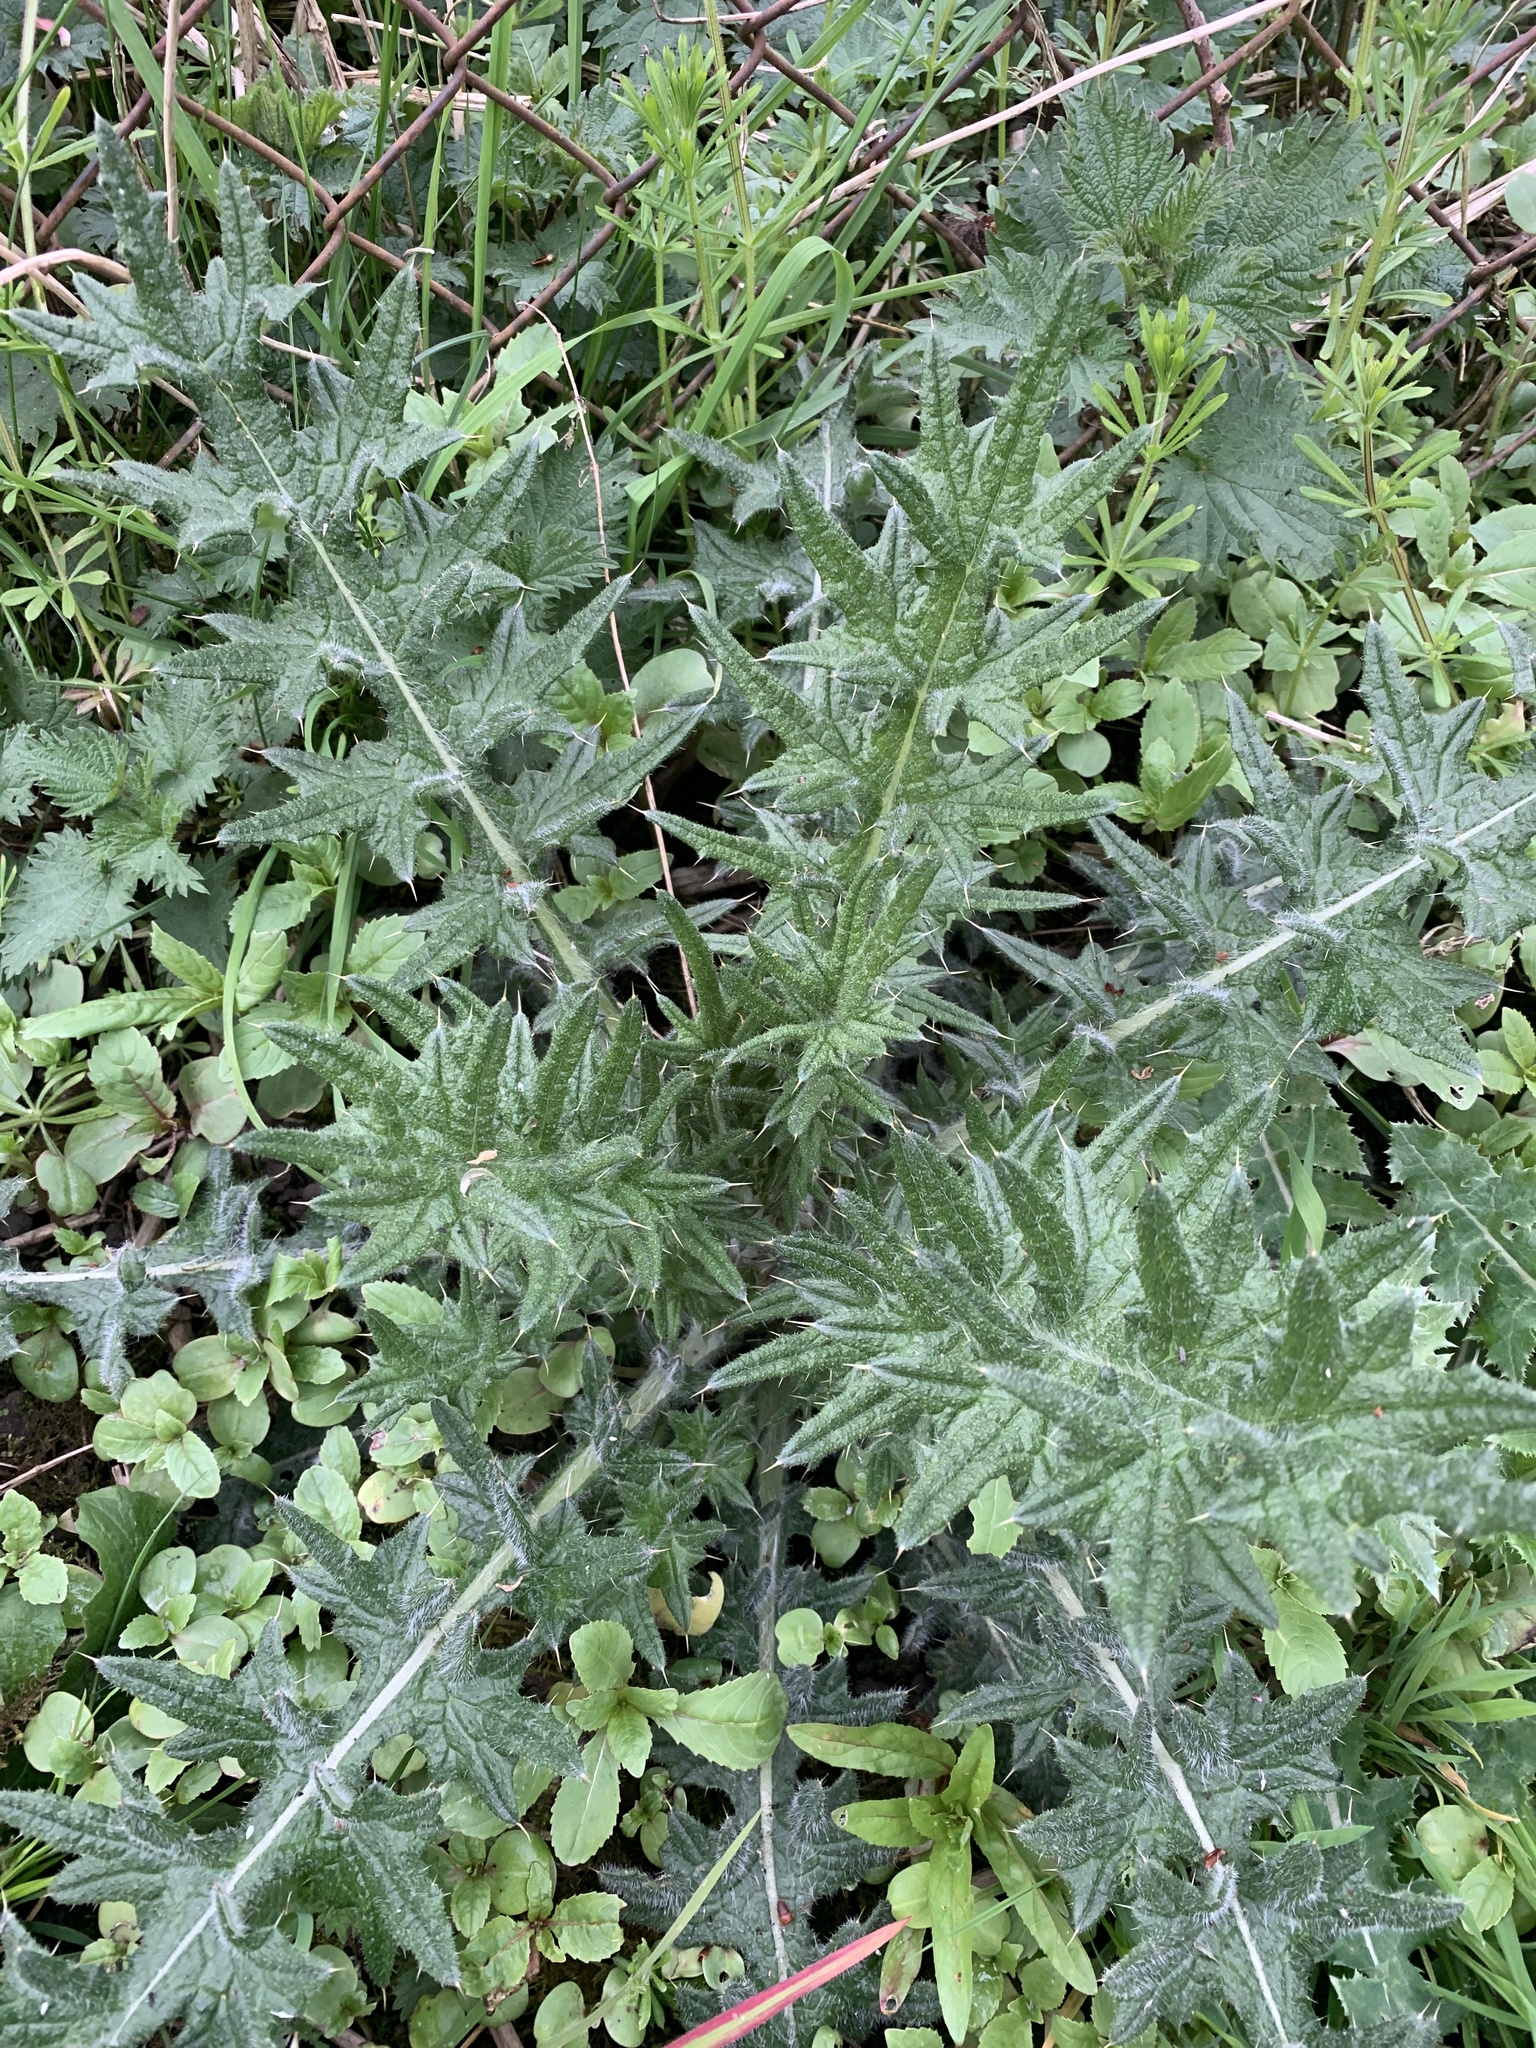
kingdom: Plantae
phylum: Tracheophyta
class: Magnoliopsida
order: Asterales
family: Asteraceae
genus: Cirsium
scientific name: Cirsium vulgare
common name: Bull thistle
